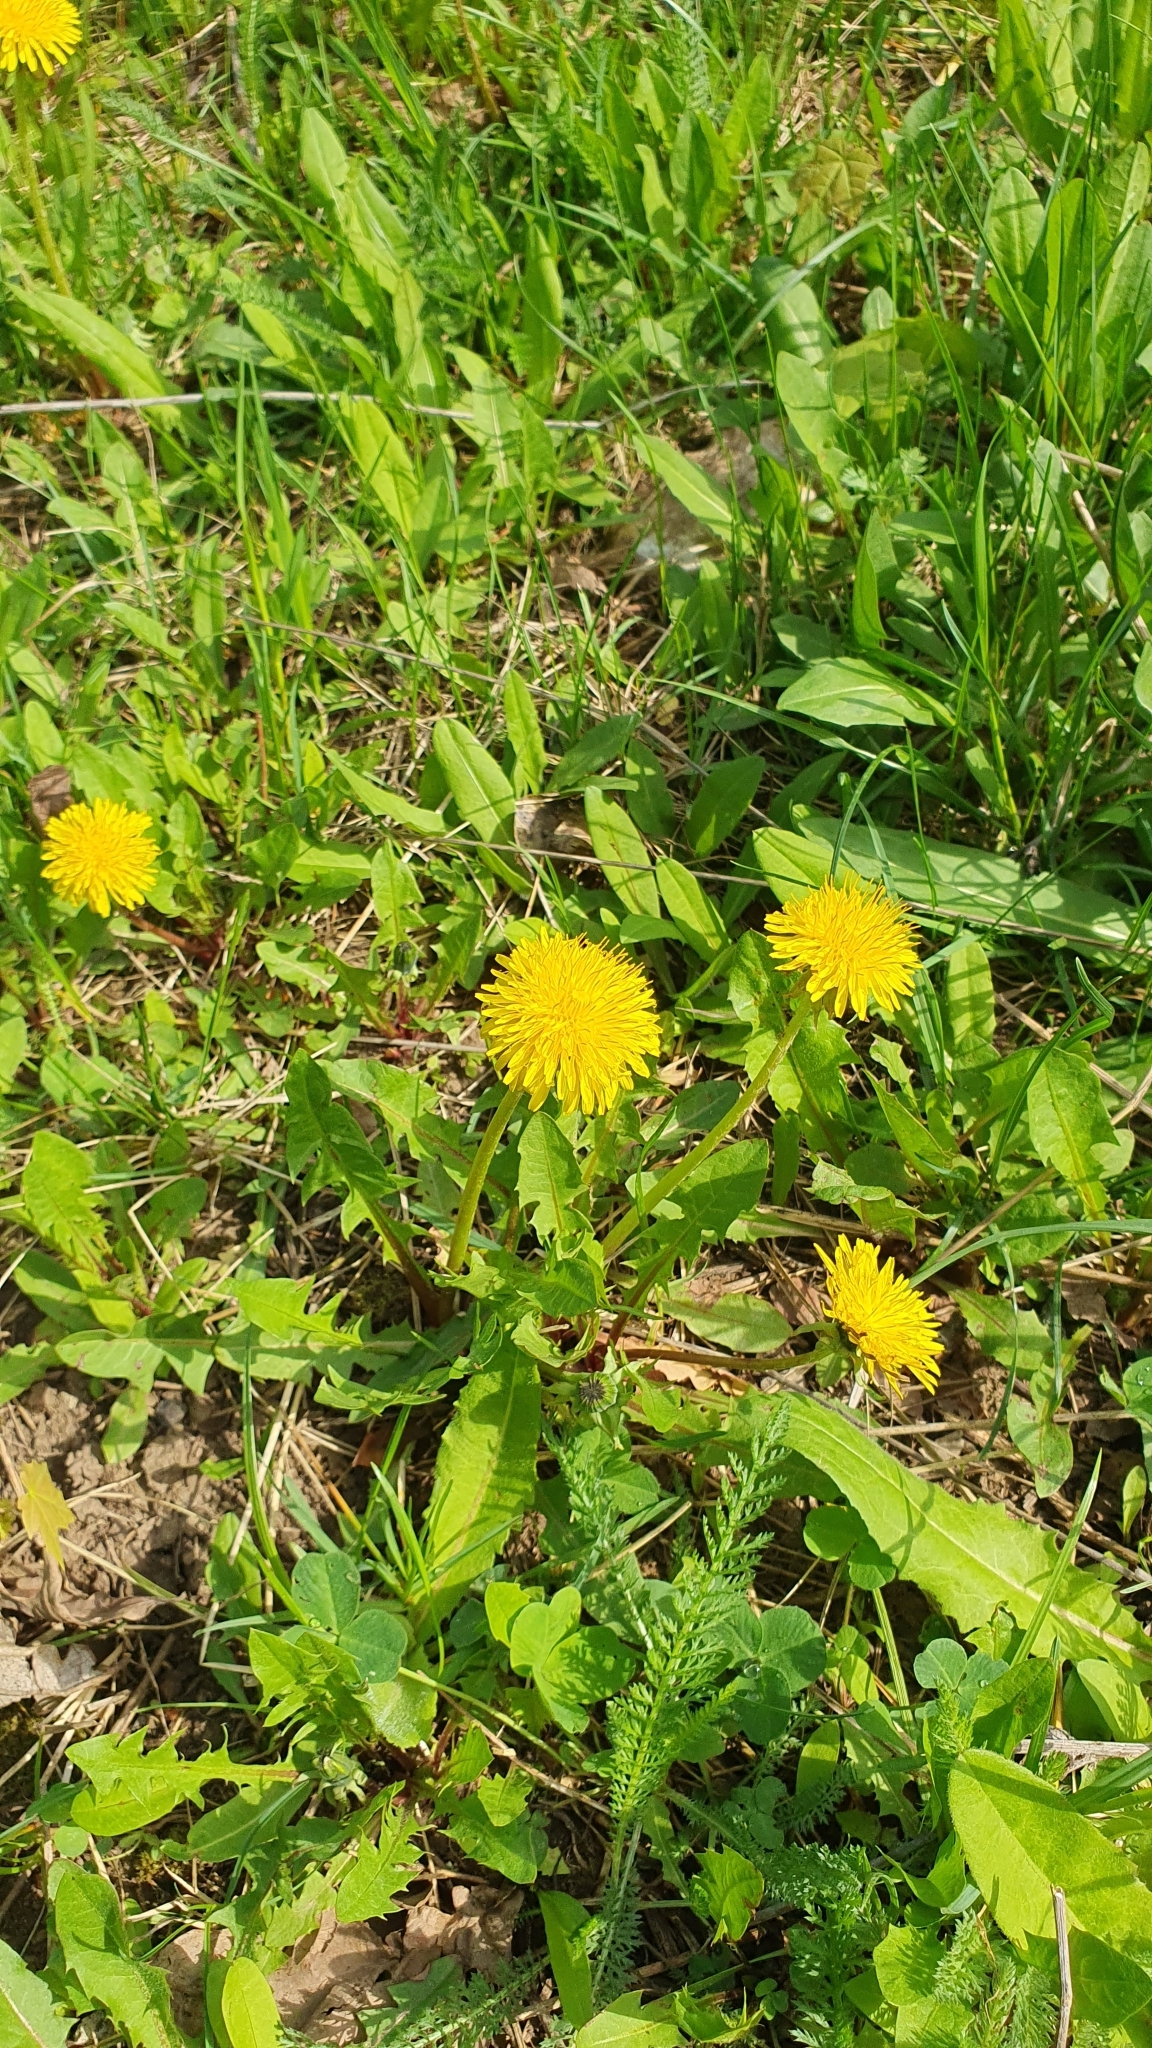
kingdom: Plantae
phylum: Tracheophyta
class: Magnoliopsida
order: Asterales
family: Asteraceae
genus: Taraxacum
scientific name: Taraxacum officinale
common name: Common dandelion
